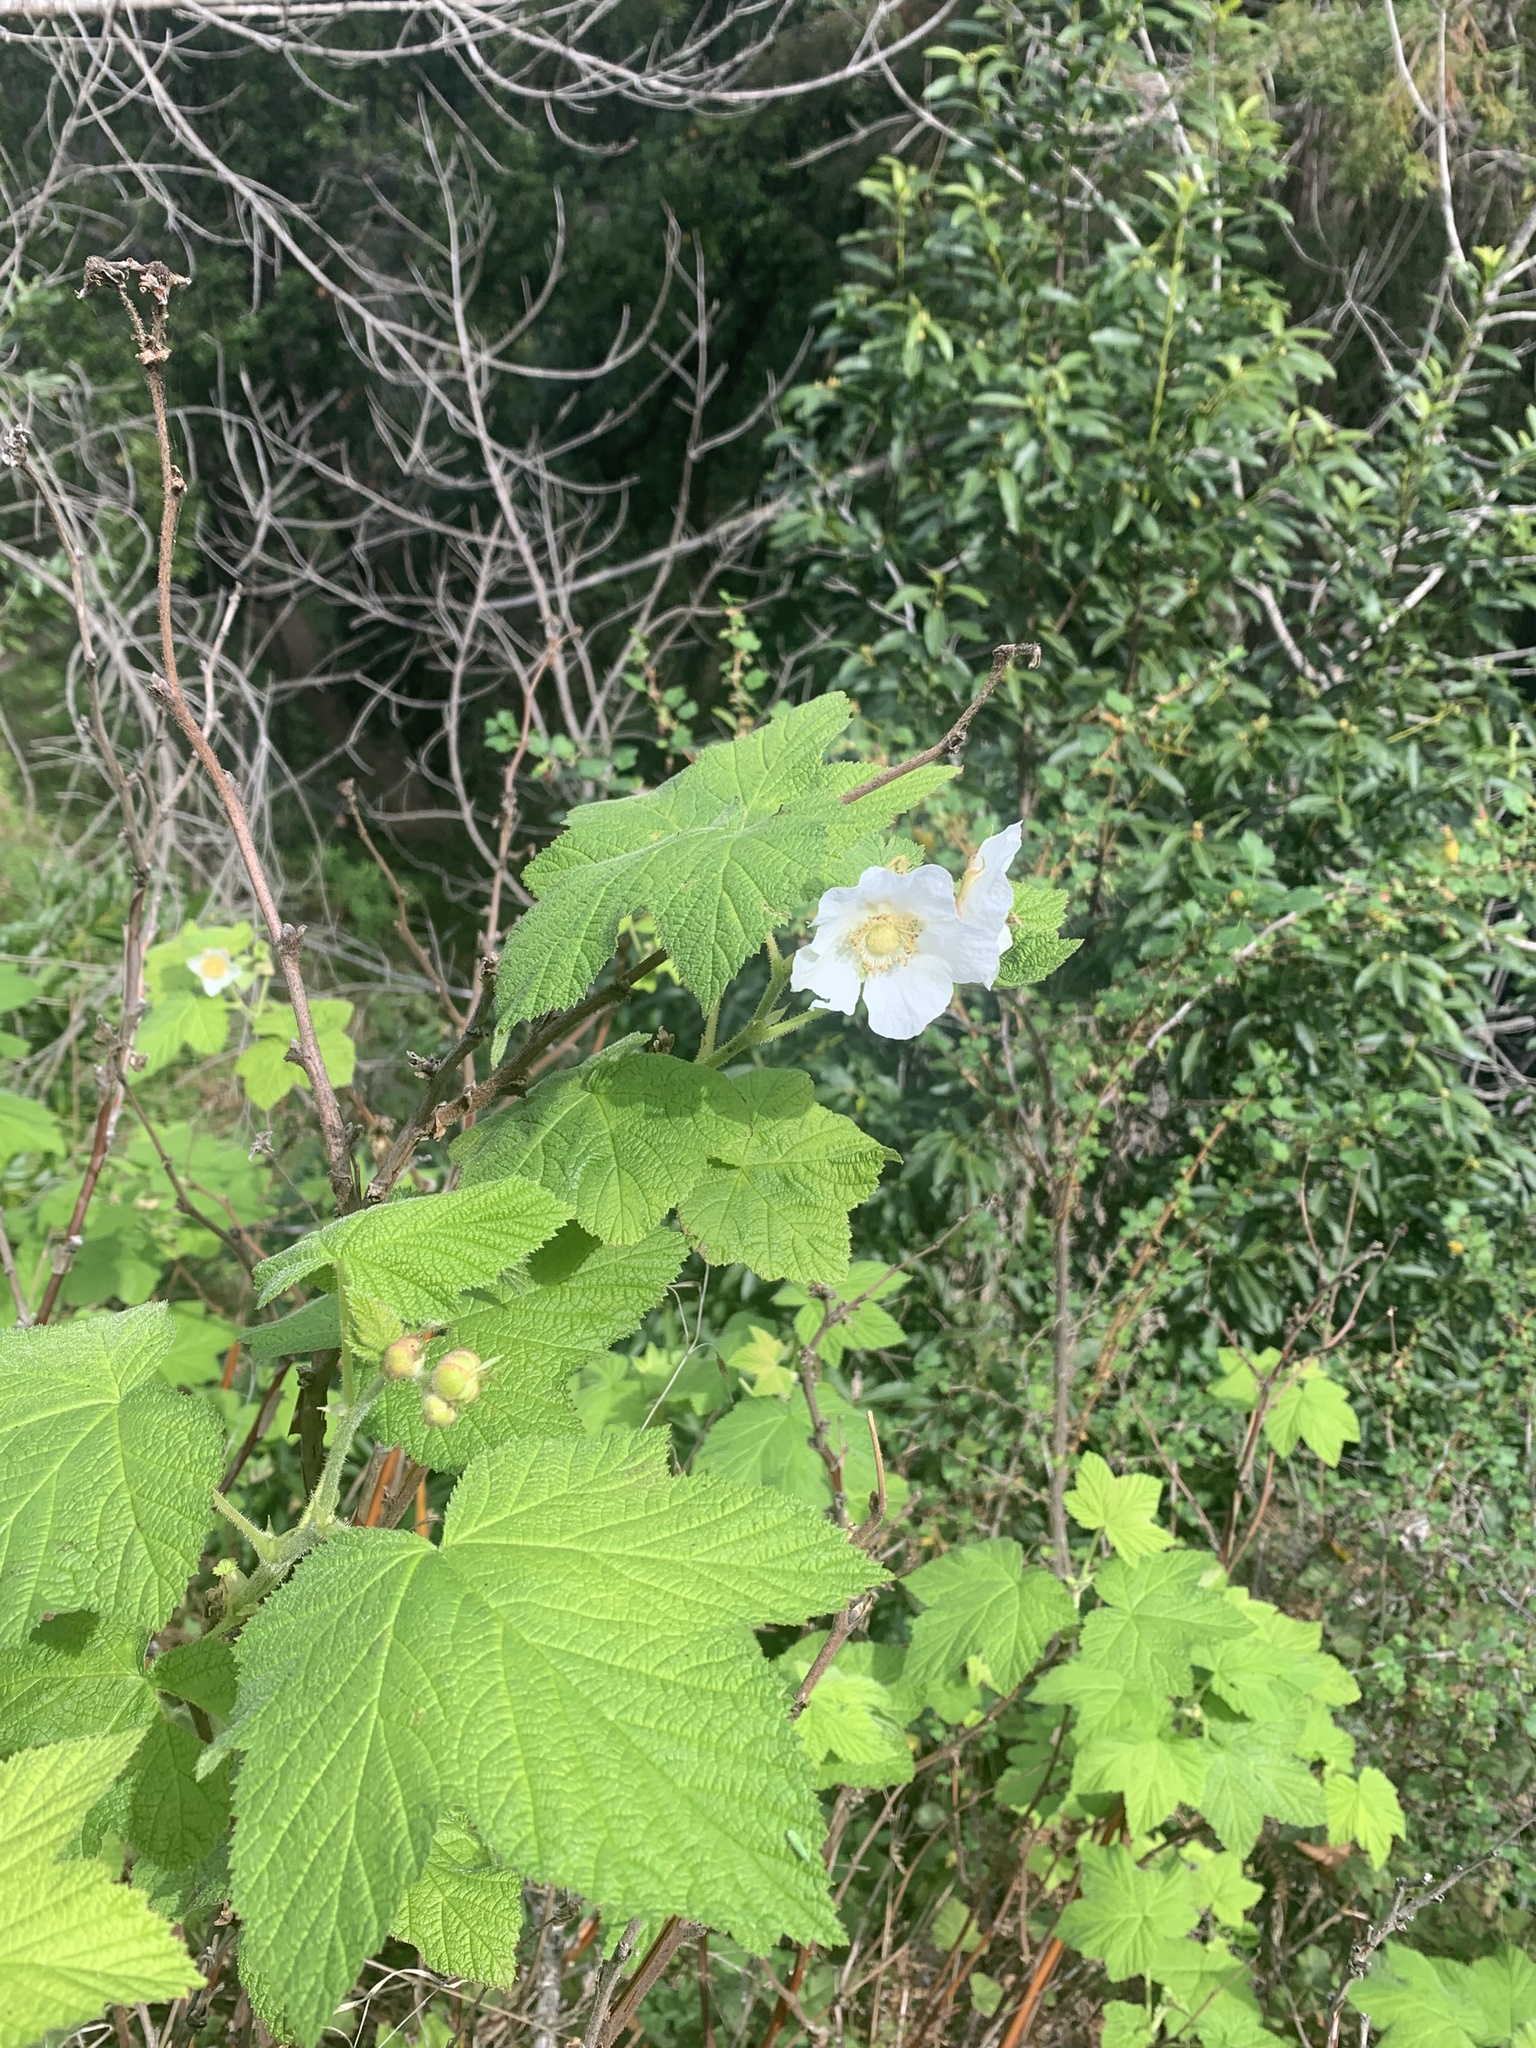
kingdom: Plantae
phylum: Tracheophyta
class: Magnoliopsida
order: Rosales
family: Rosaceae
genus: Rubus
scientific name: Rubus parviflorus
